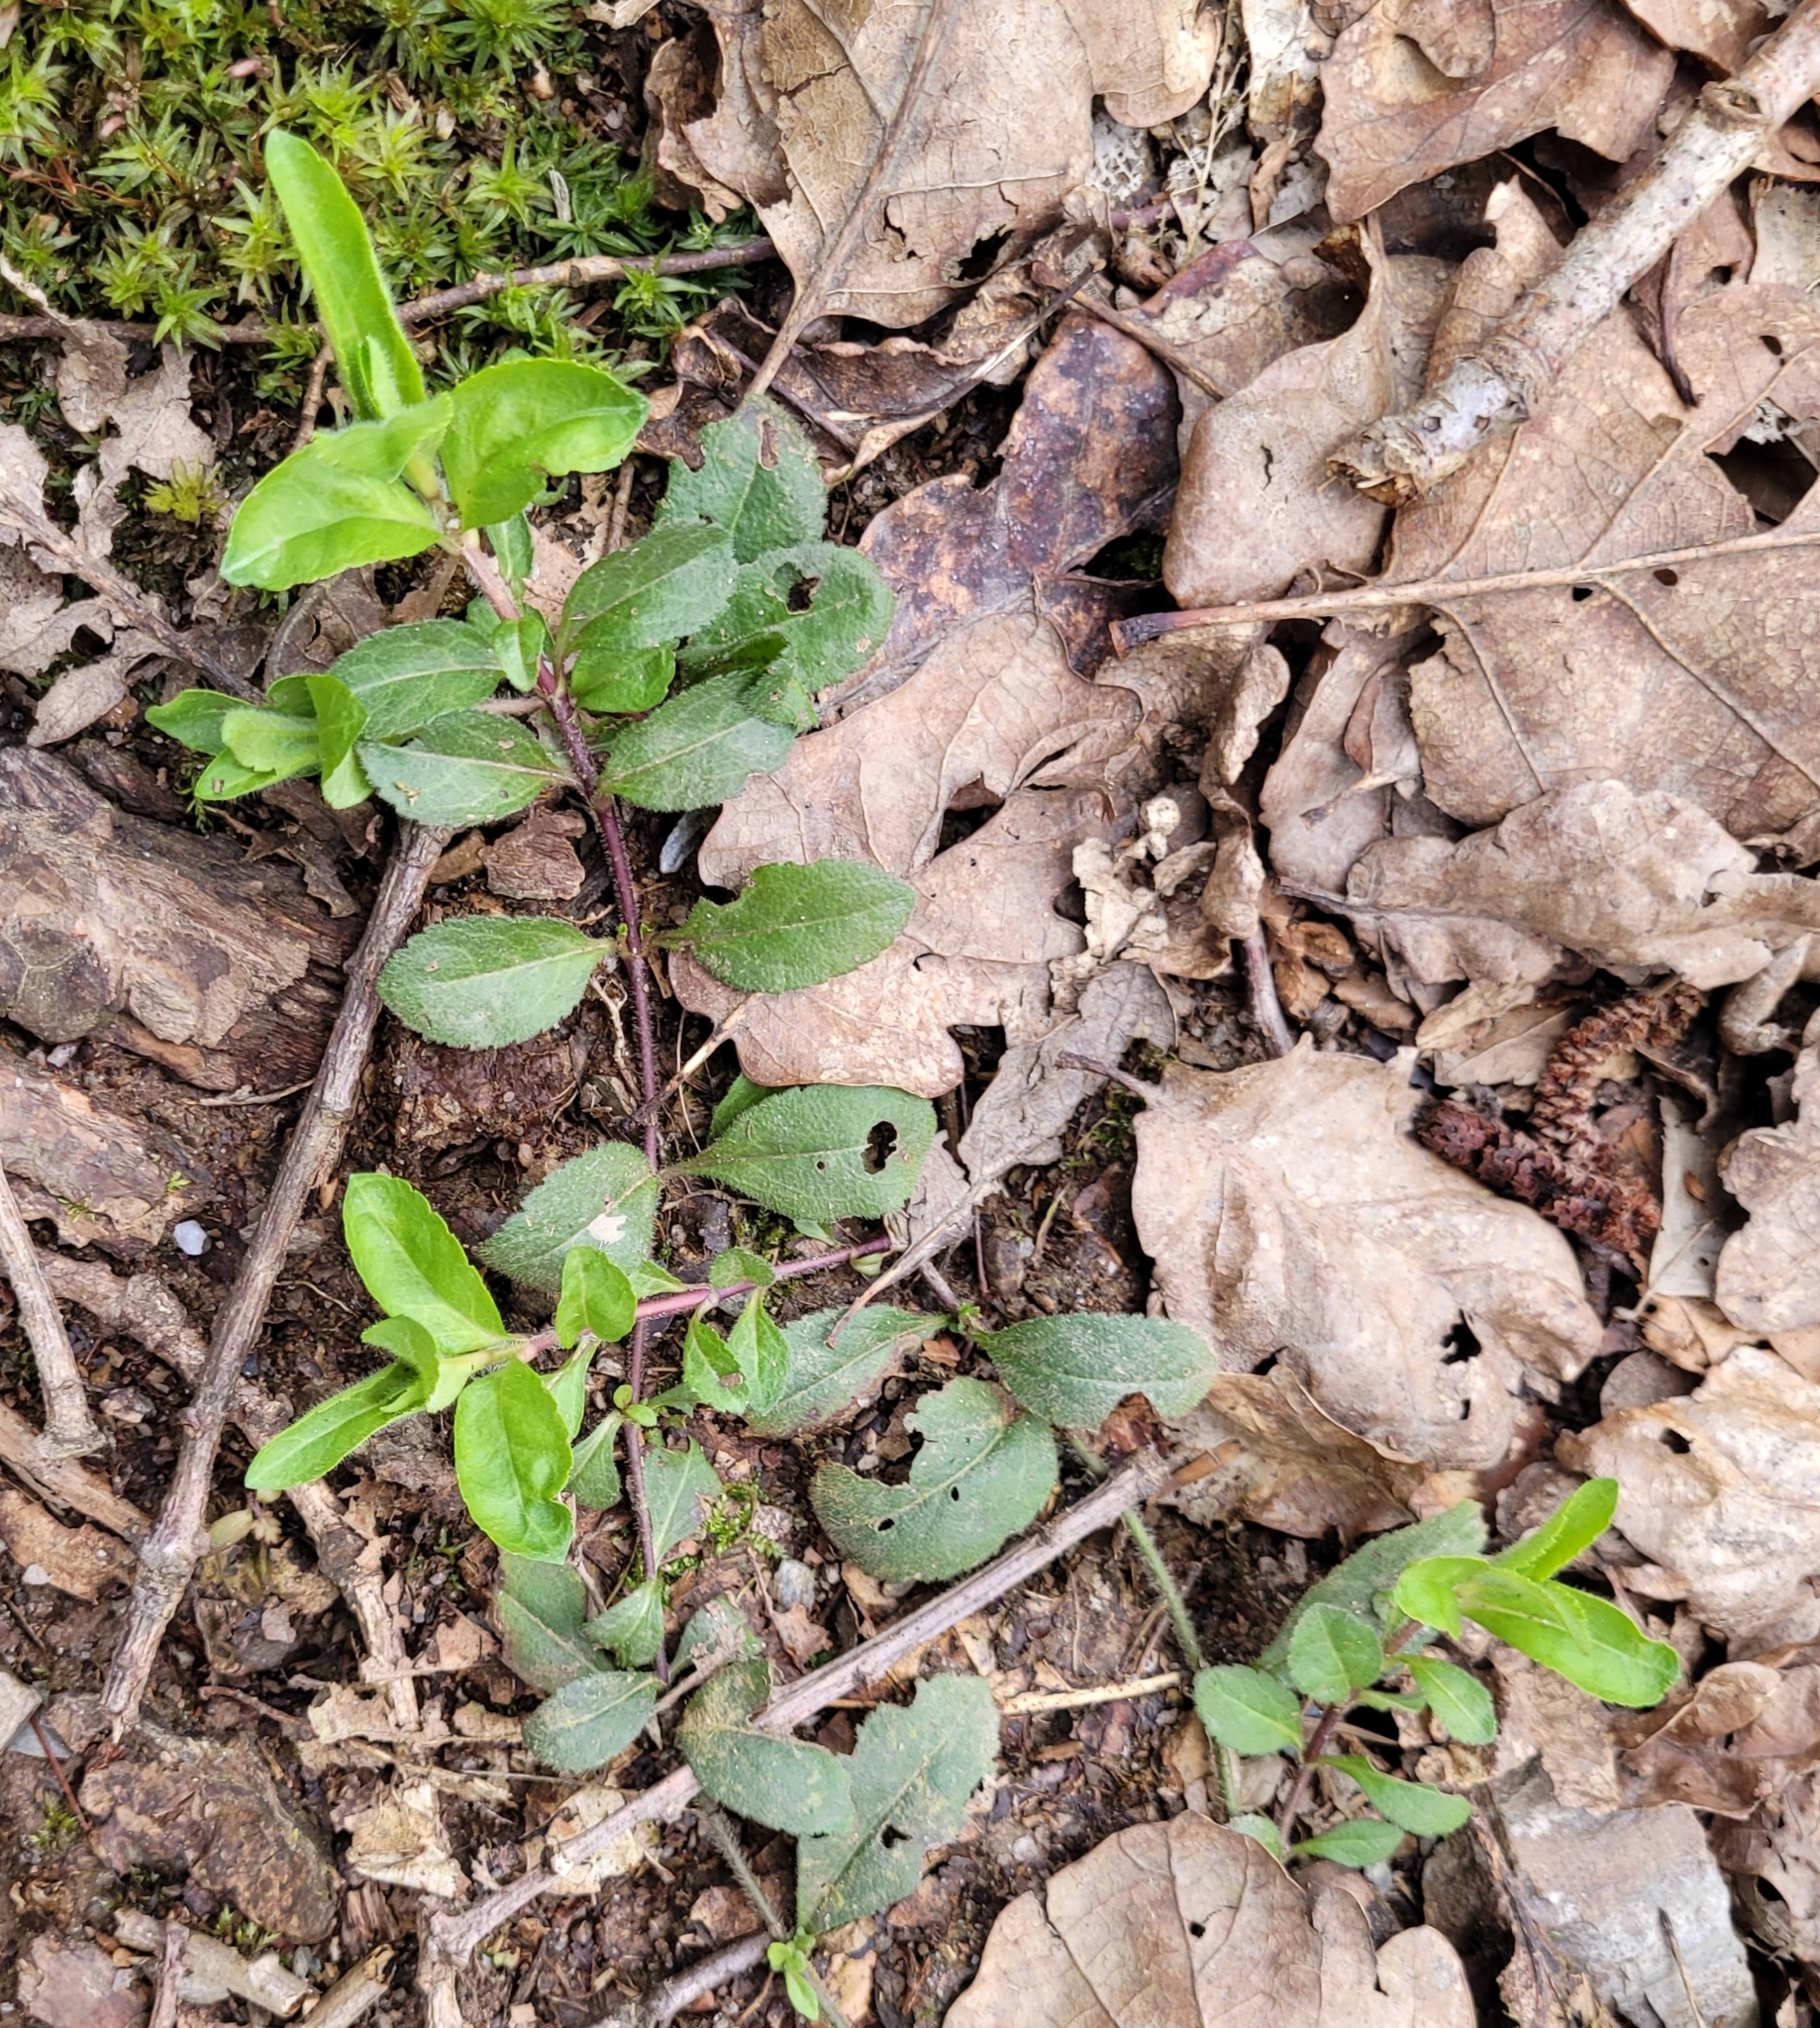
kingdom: Plantae
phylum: Tracheophyta
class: Magnoliopsida
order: Lamiales
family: Plantaginaceae
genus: Veronica
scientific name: Veronica officinalis
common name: Common speedwell
